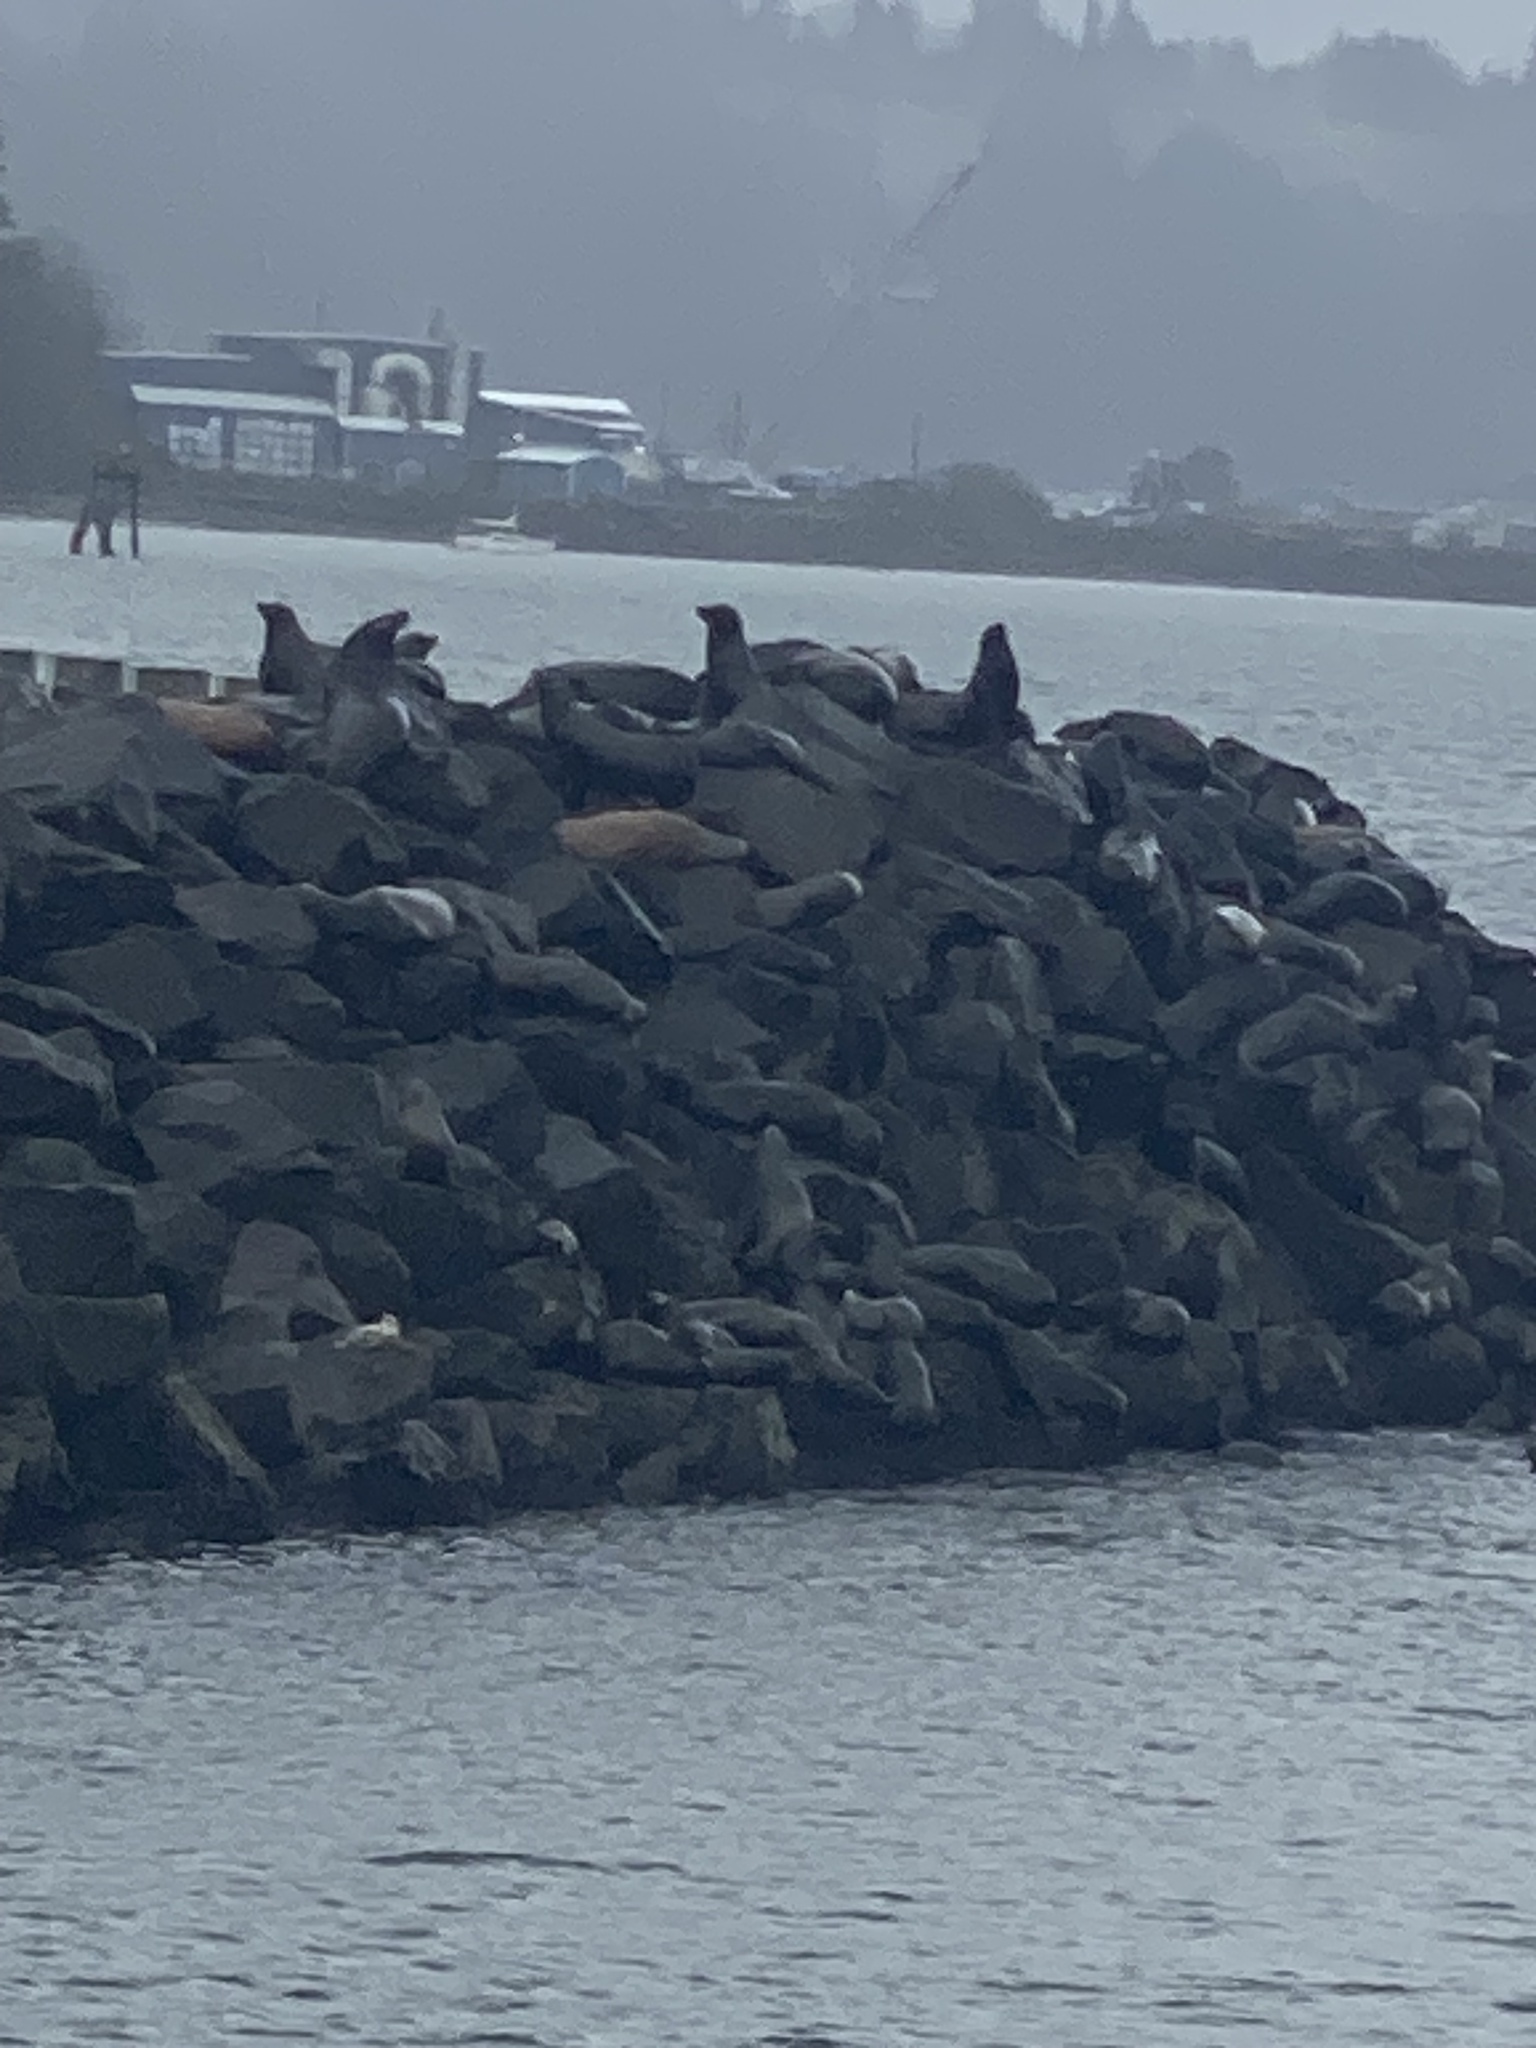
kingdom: Animalia
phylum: Chordata
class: Mammalia
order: Carnivora
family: Otariidae
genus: Zalophus
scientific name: Zalophus californianus
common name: California sea lion
